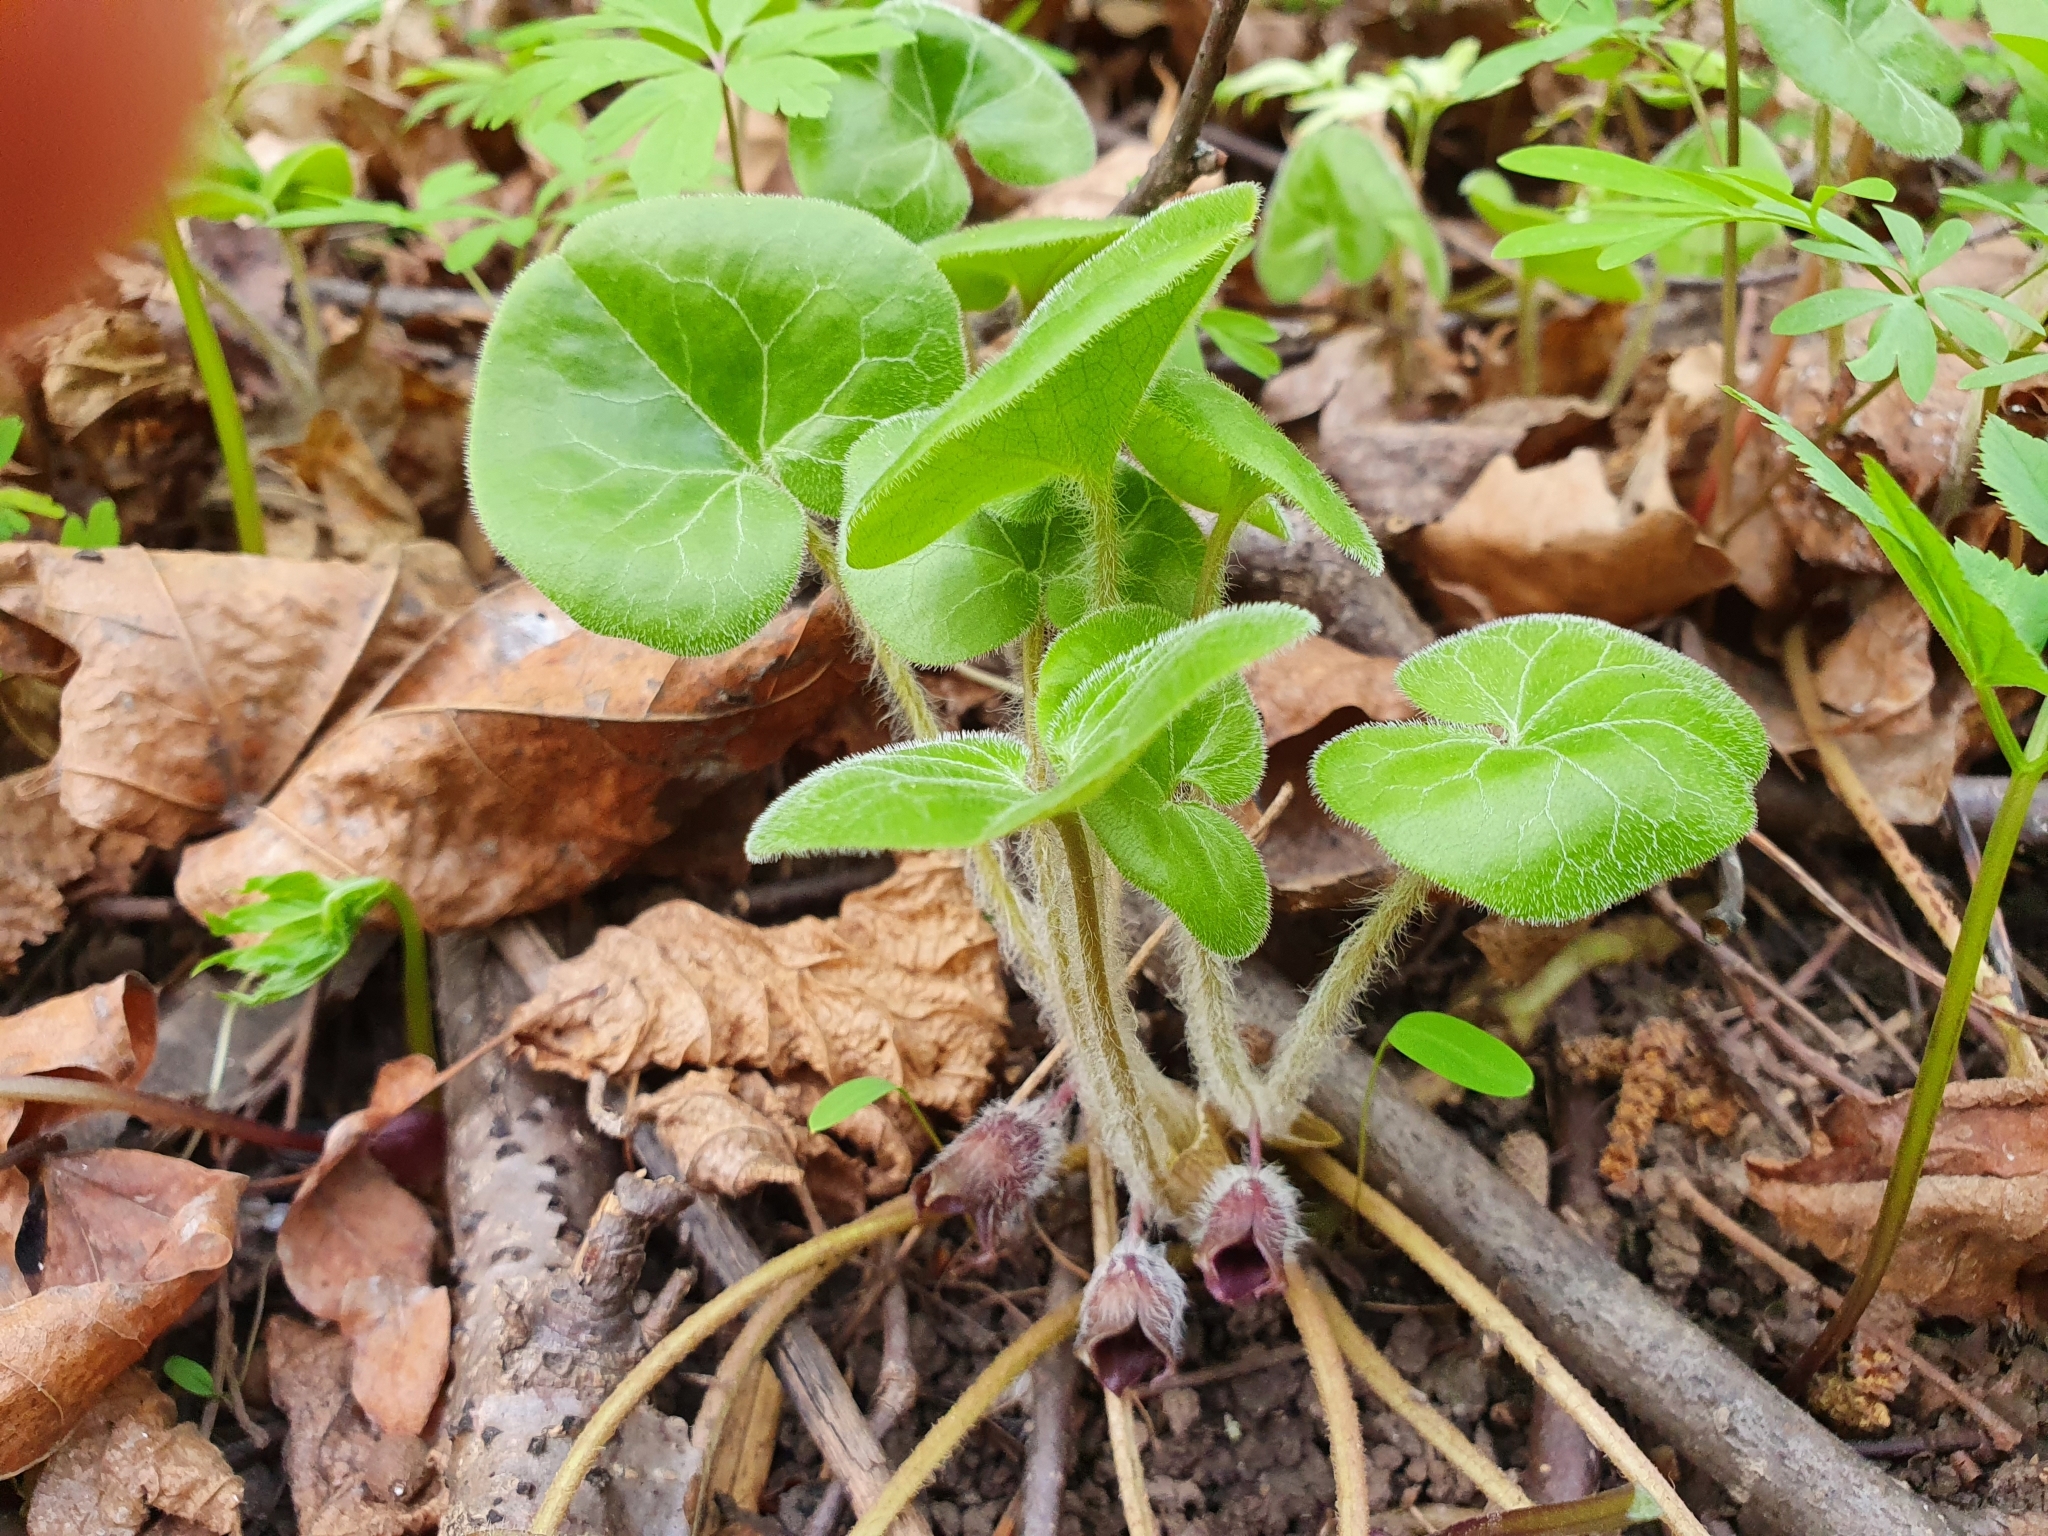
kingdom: Plantae
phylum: Tracheophyta
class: Magnoliopsida
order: Piperales
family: Aristolochiaceae
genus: Asarum
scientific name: Asarum europaeum
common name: Asarabacca
